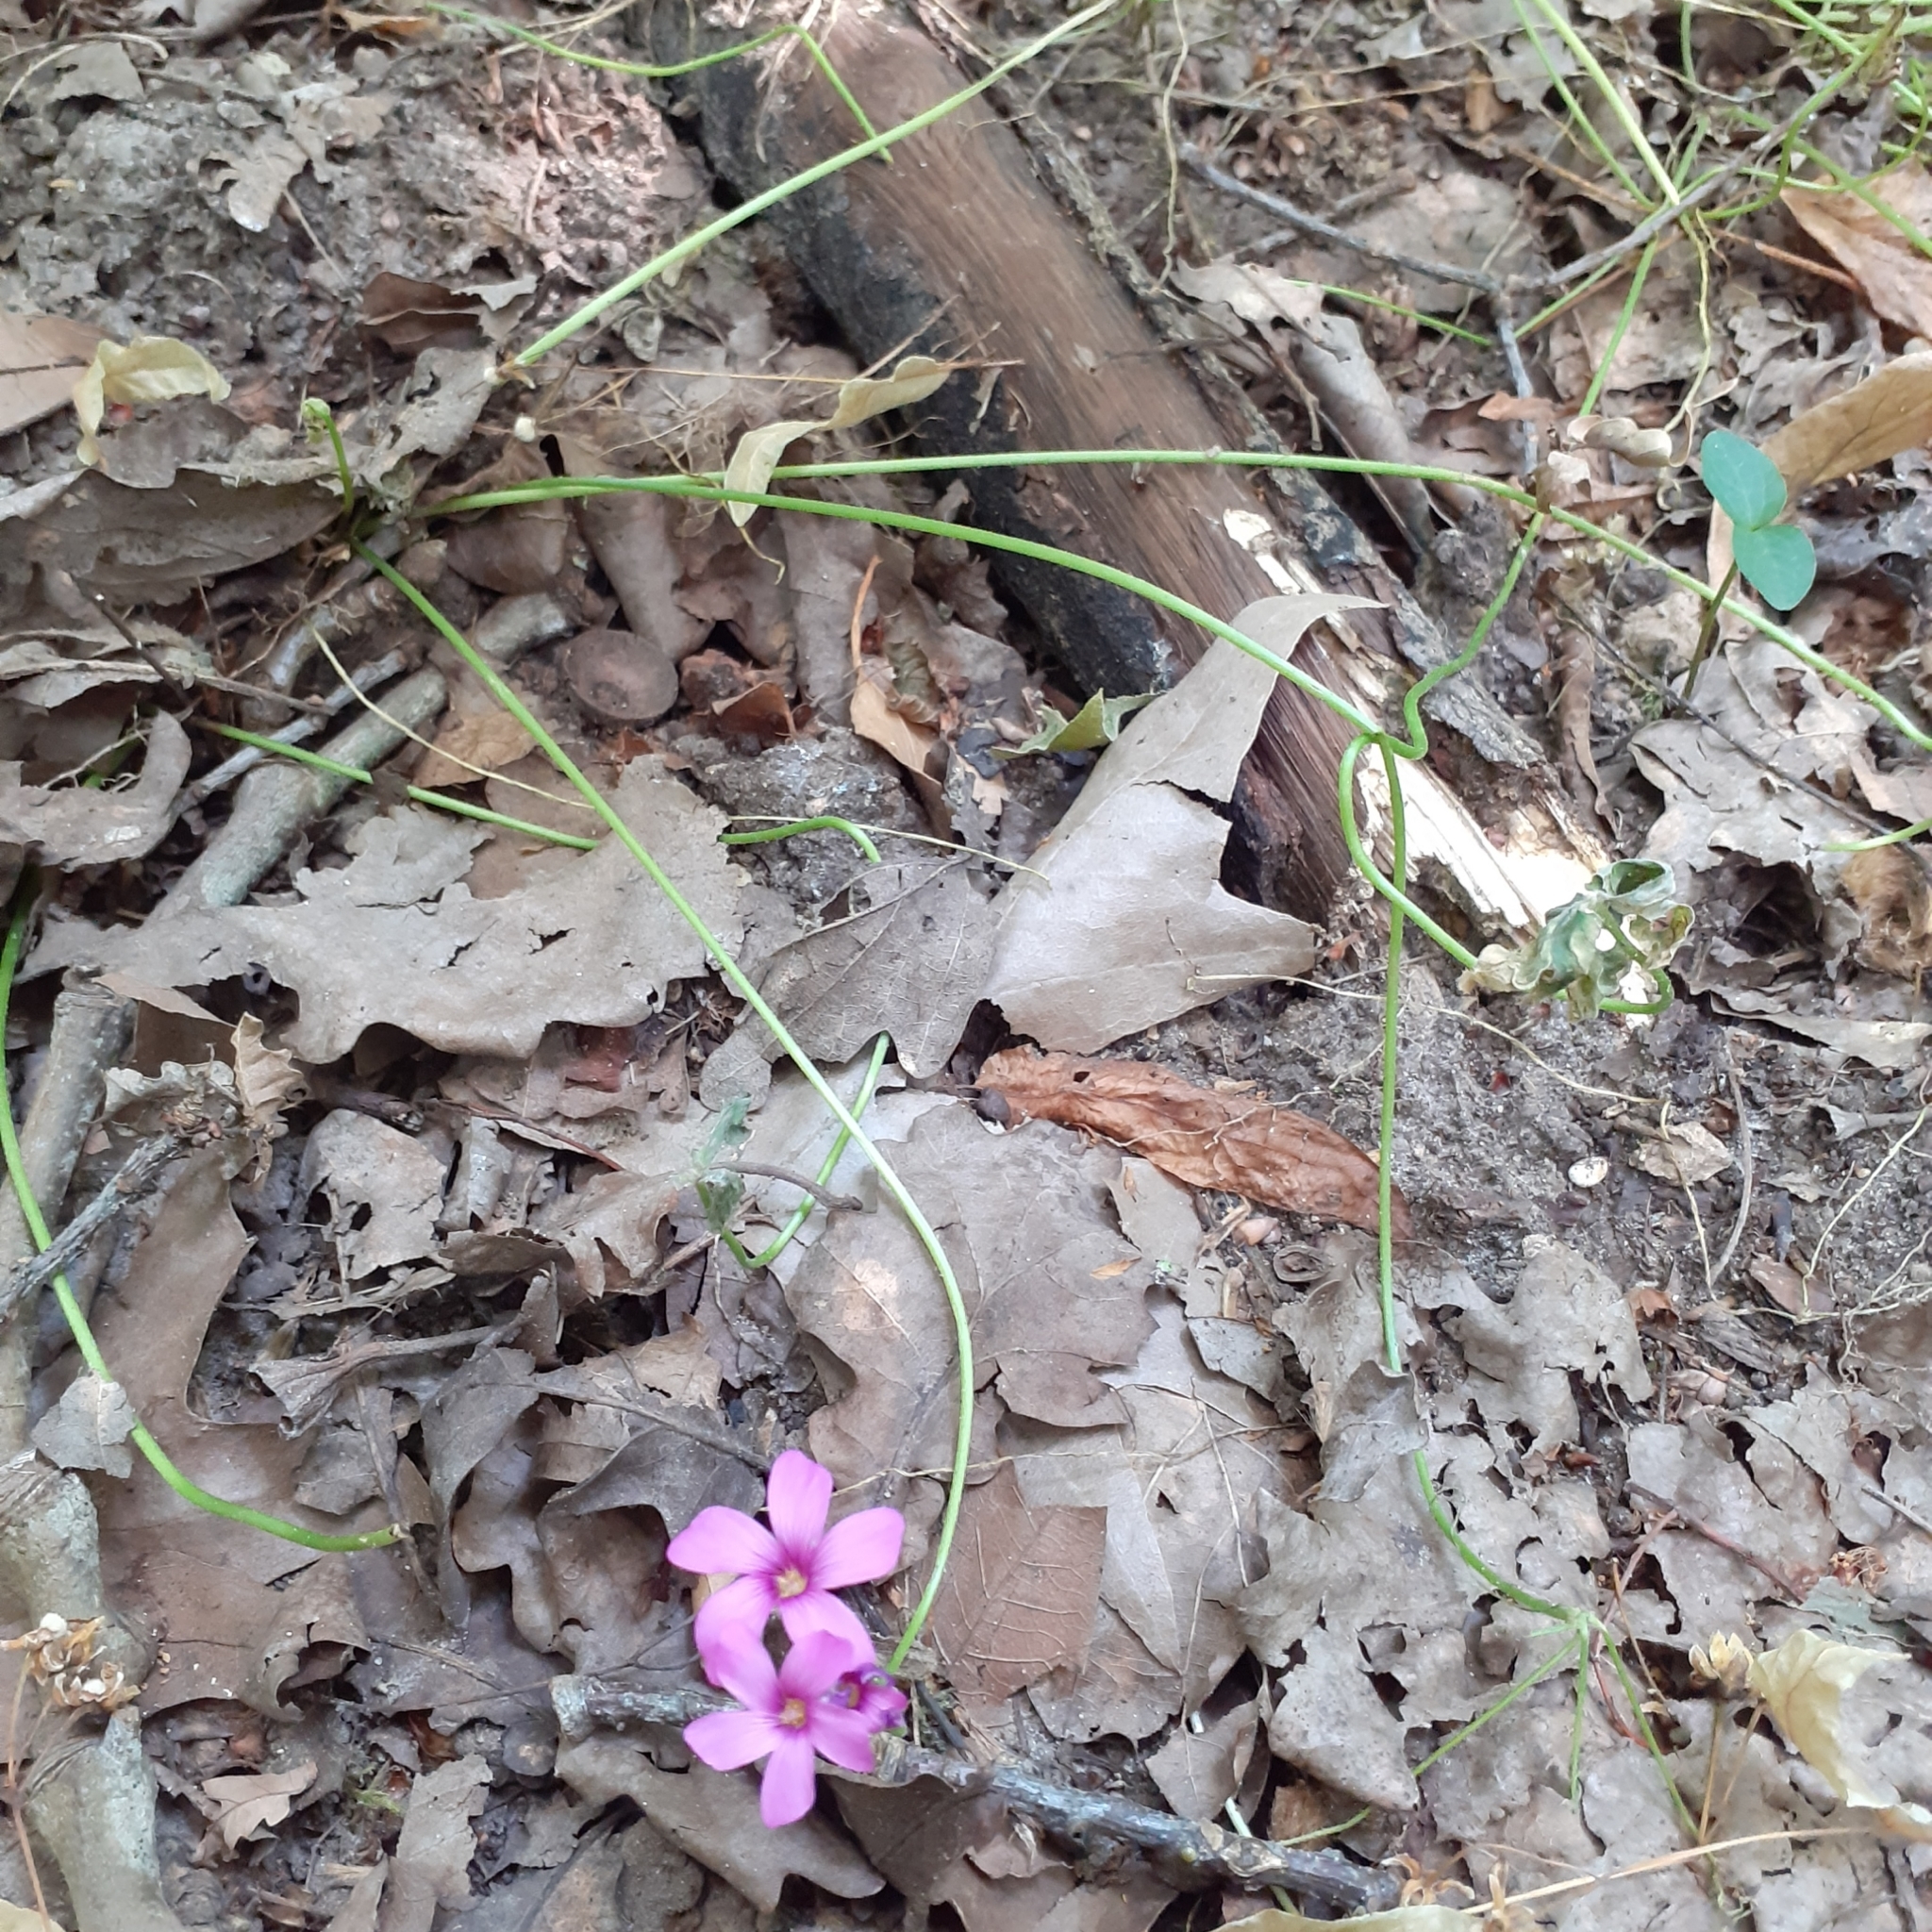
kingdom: Plantae
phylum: Tracheophyta
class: Magnoliopsida
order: Oxalidales
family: Oxalidaceae
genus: Oxalis
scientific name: Oxalis articulata
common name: Pink-sorrel
